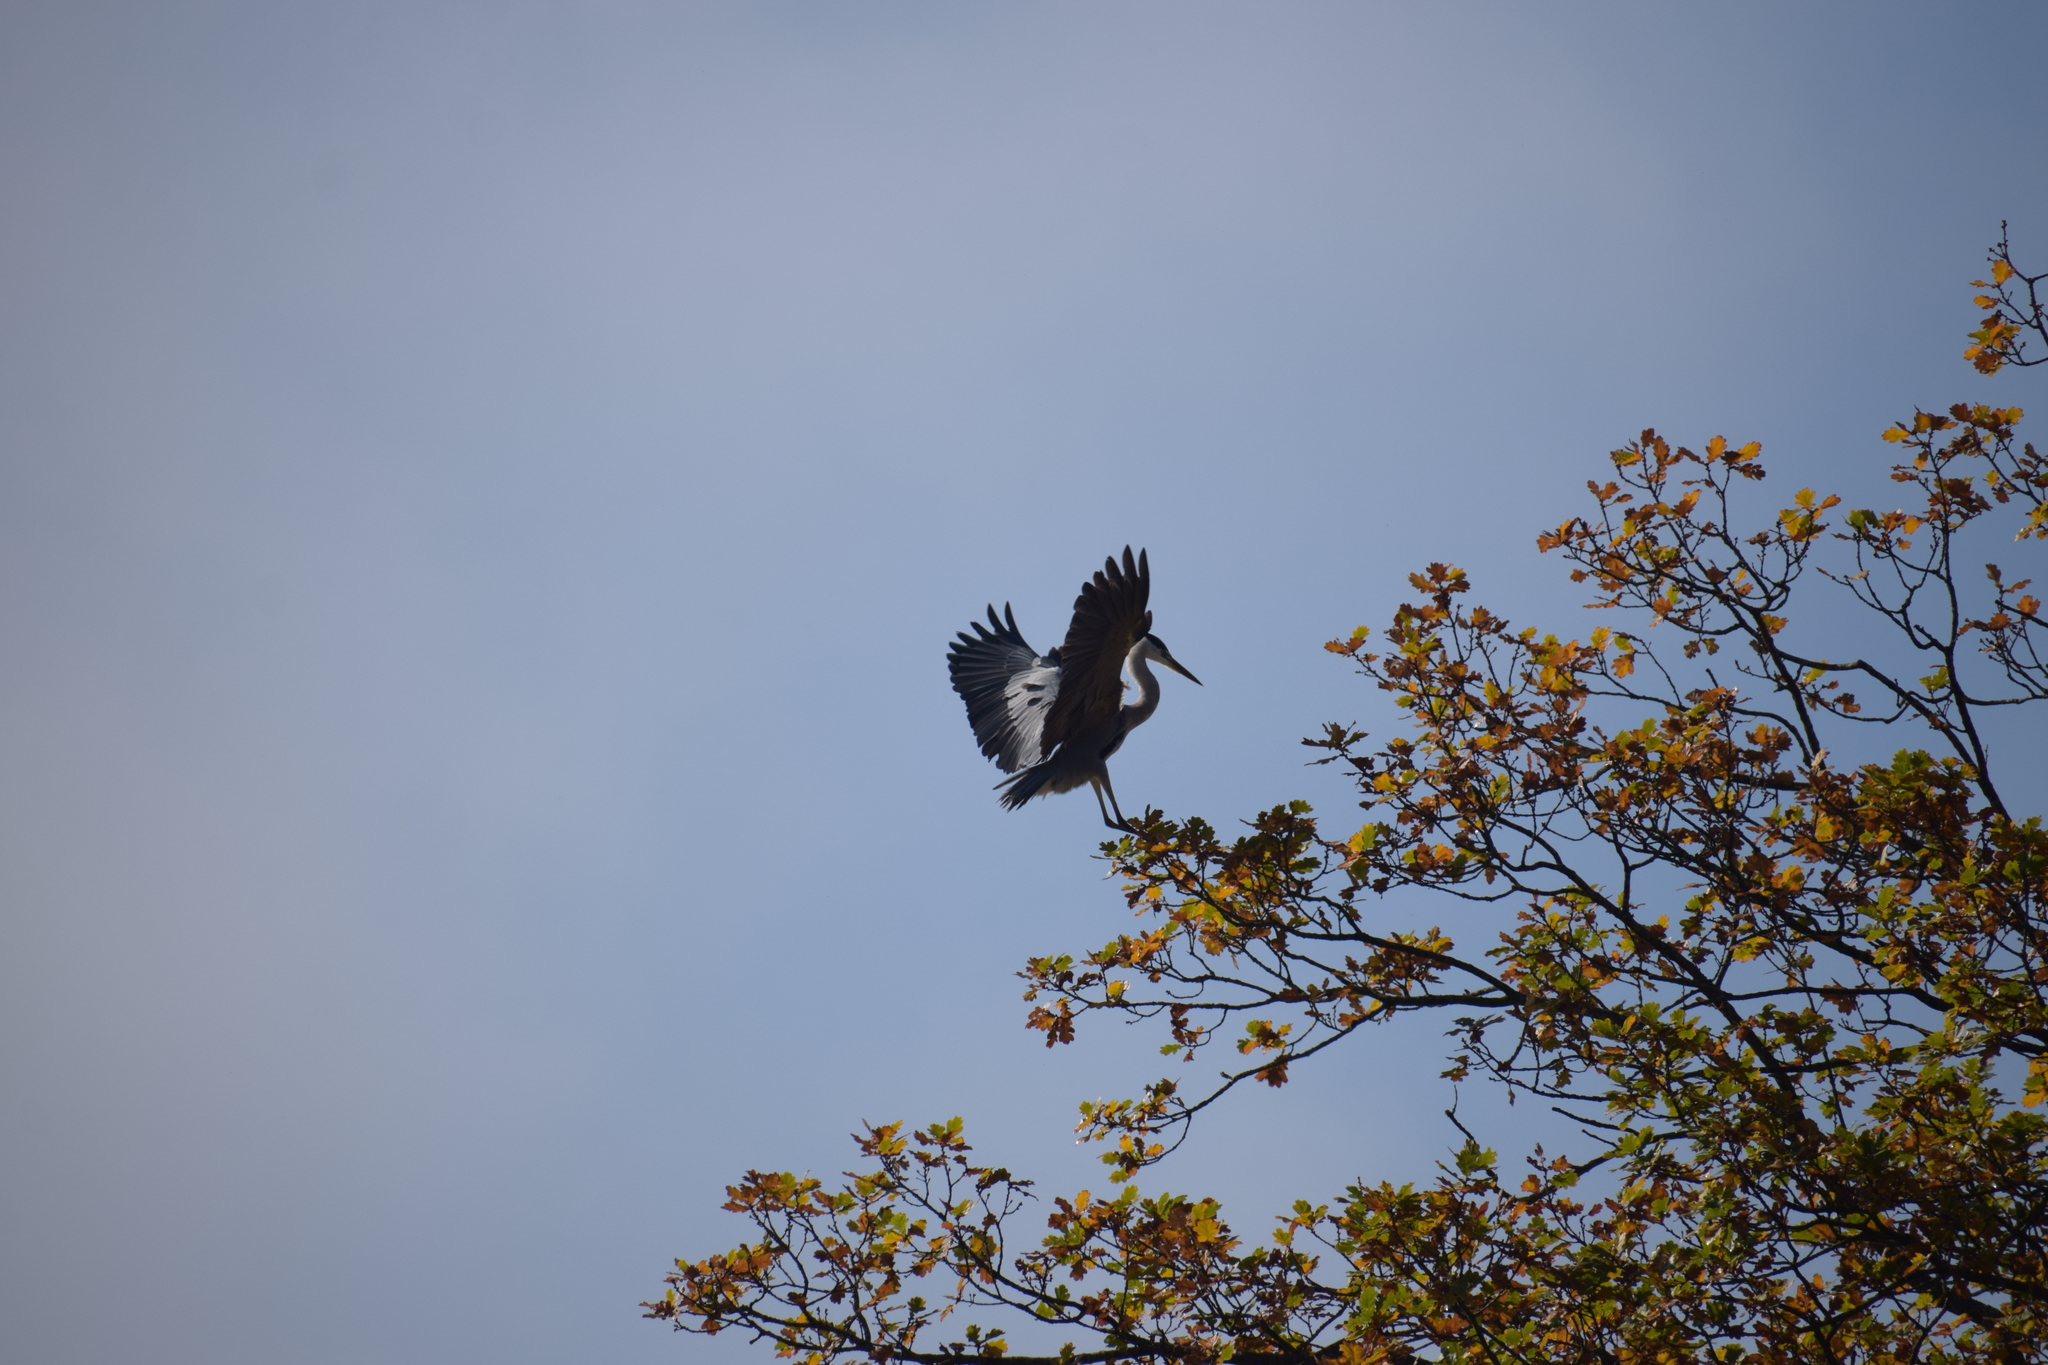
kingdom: Animalia
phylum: Chordata
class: Aves
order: Pelecaniformes
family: Ardeidae
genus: Ardea
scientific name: Ardea cinerea
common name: Grey heron
